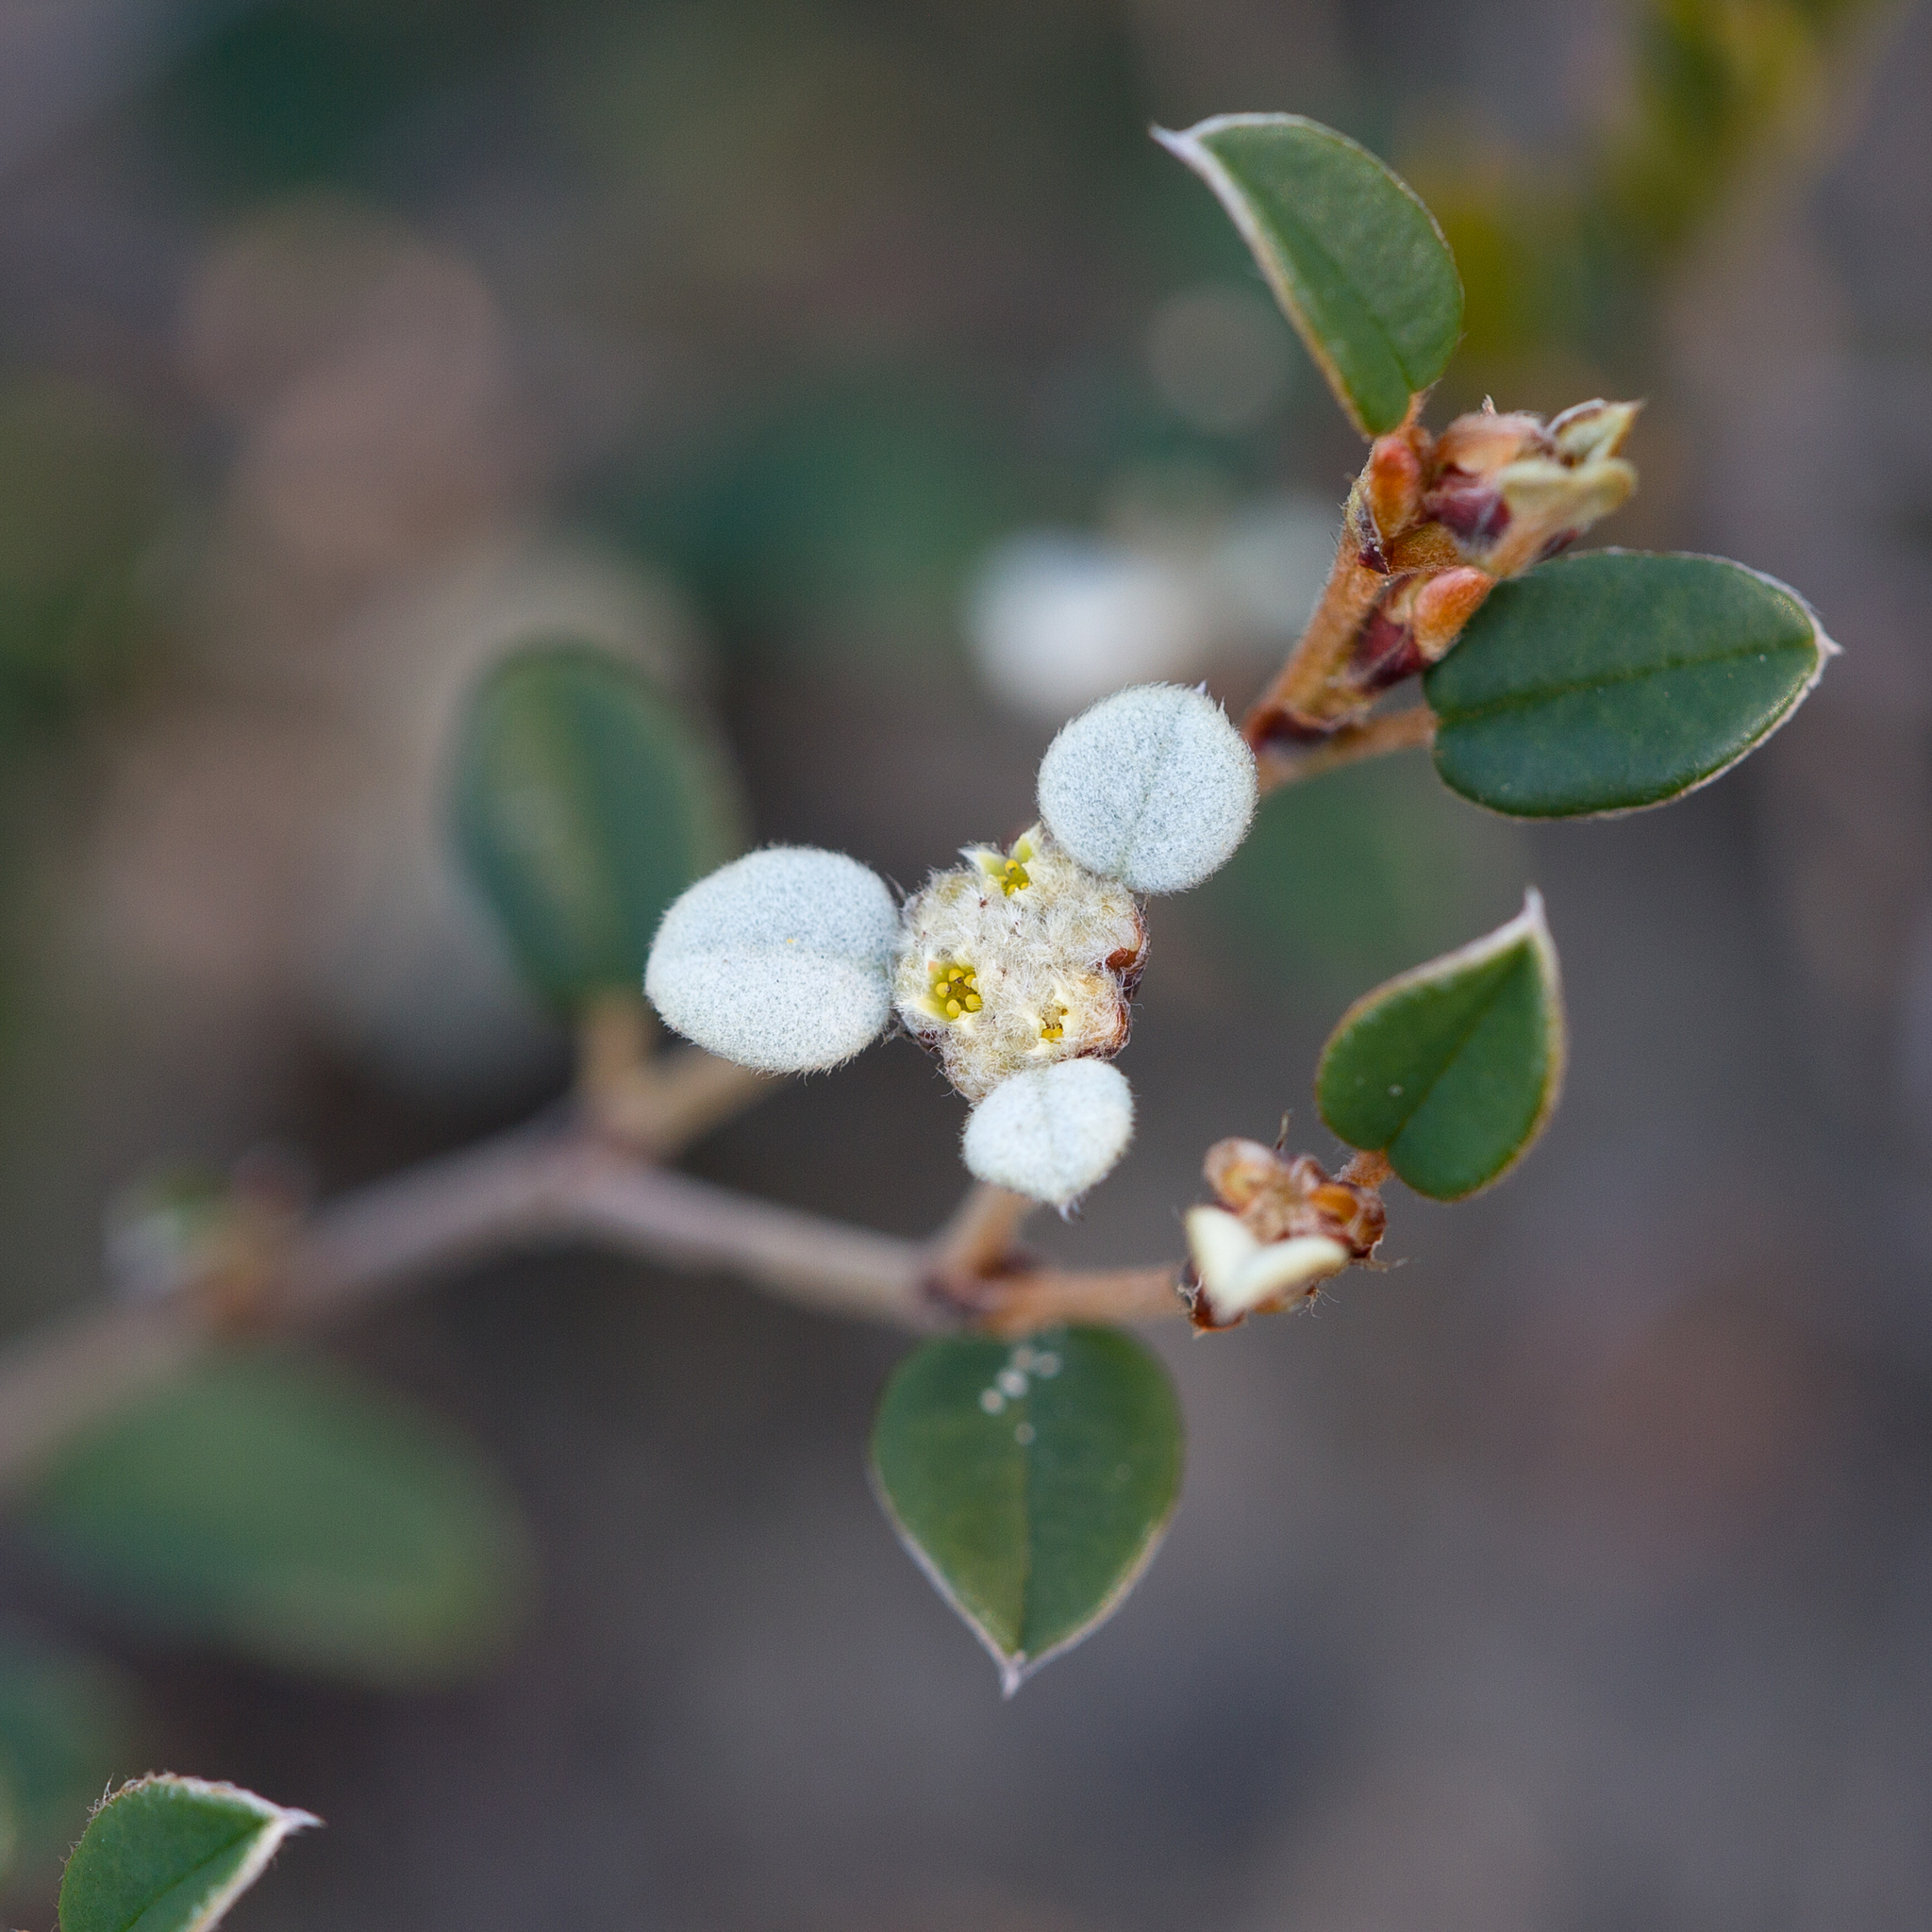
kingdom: Plantae
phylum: Tracheophyta
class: Magnoliopsida
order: Rosales
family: Rhamnaceae
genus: Spyridium
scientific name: Spyridium thymifolium
